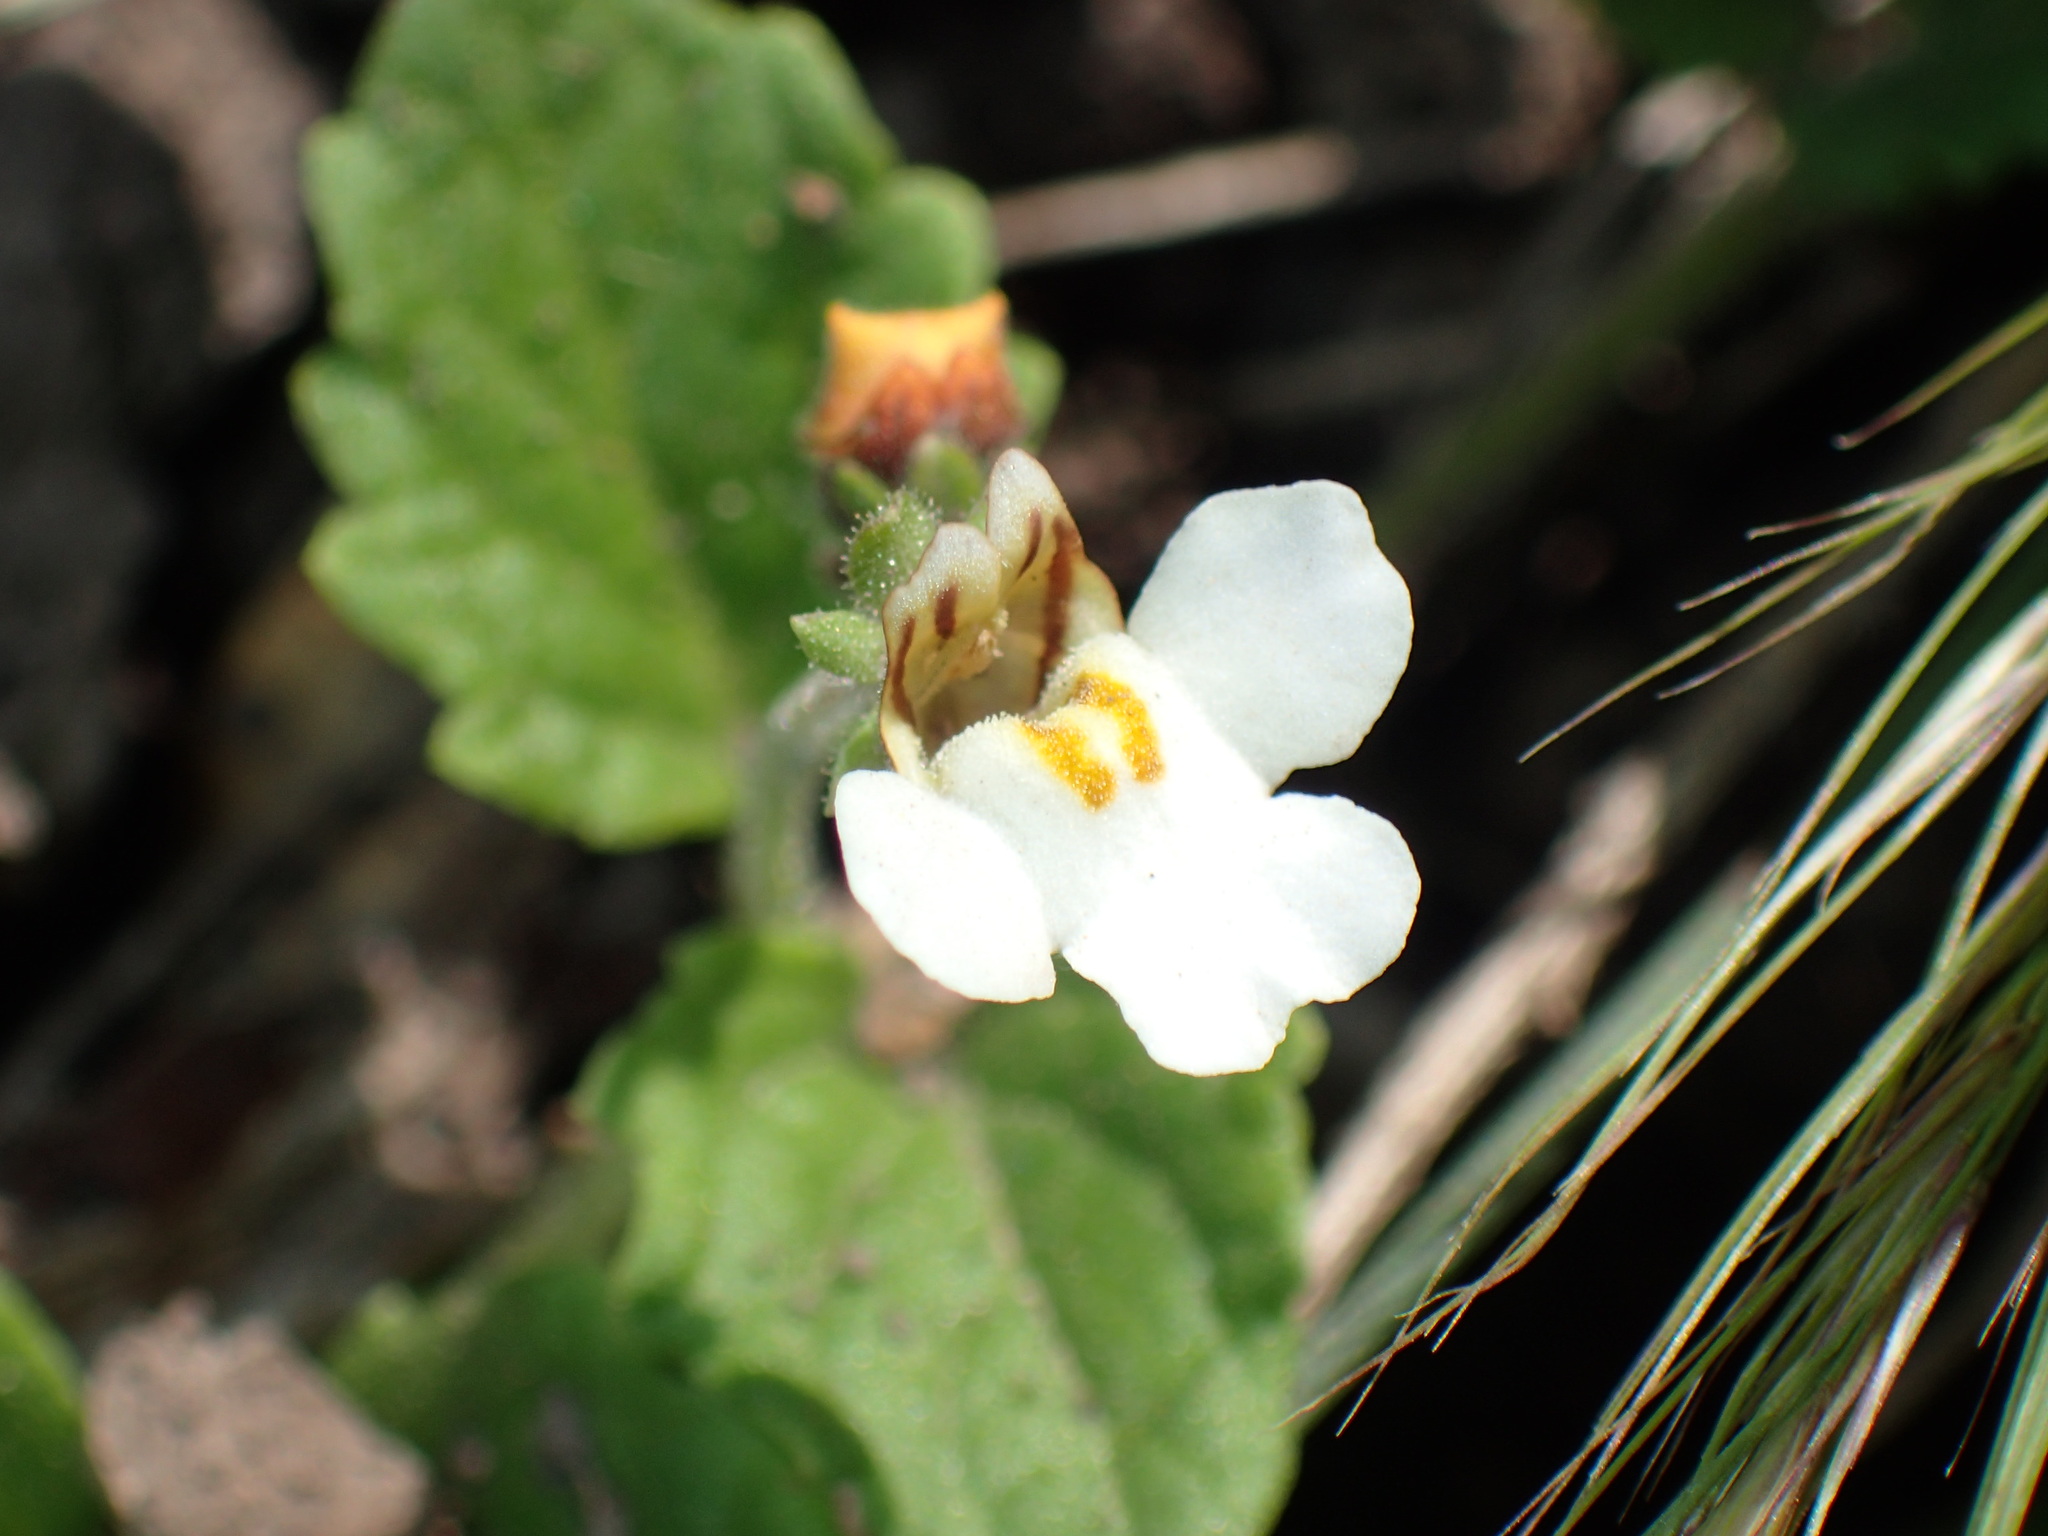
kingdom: Plantae
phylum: Tracheophyta
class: Magnoliopsida
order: Lamiales
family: Scrophulariaceae
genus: Diclis
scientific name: Diclis reptans
